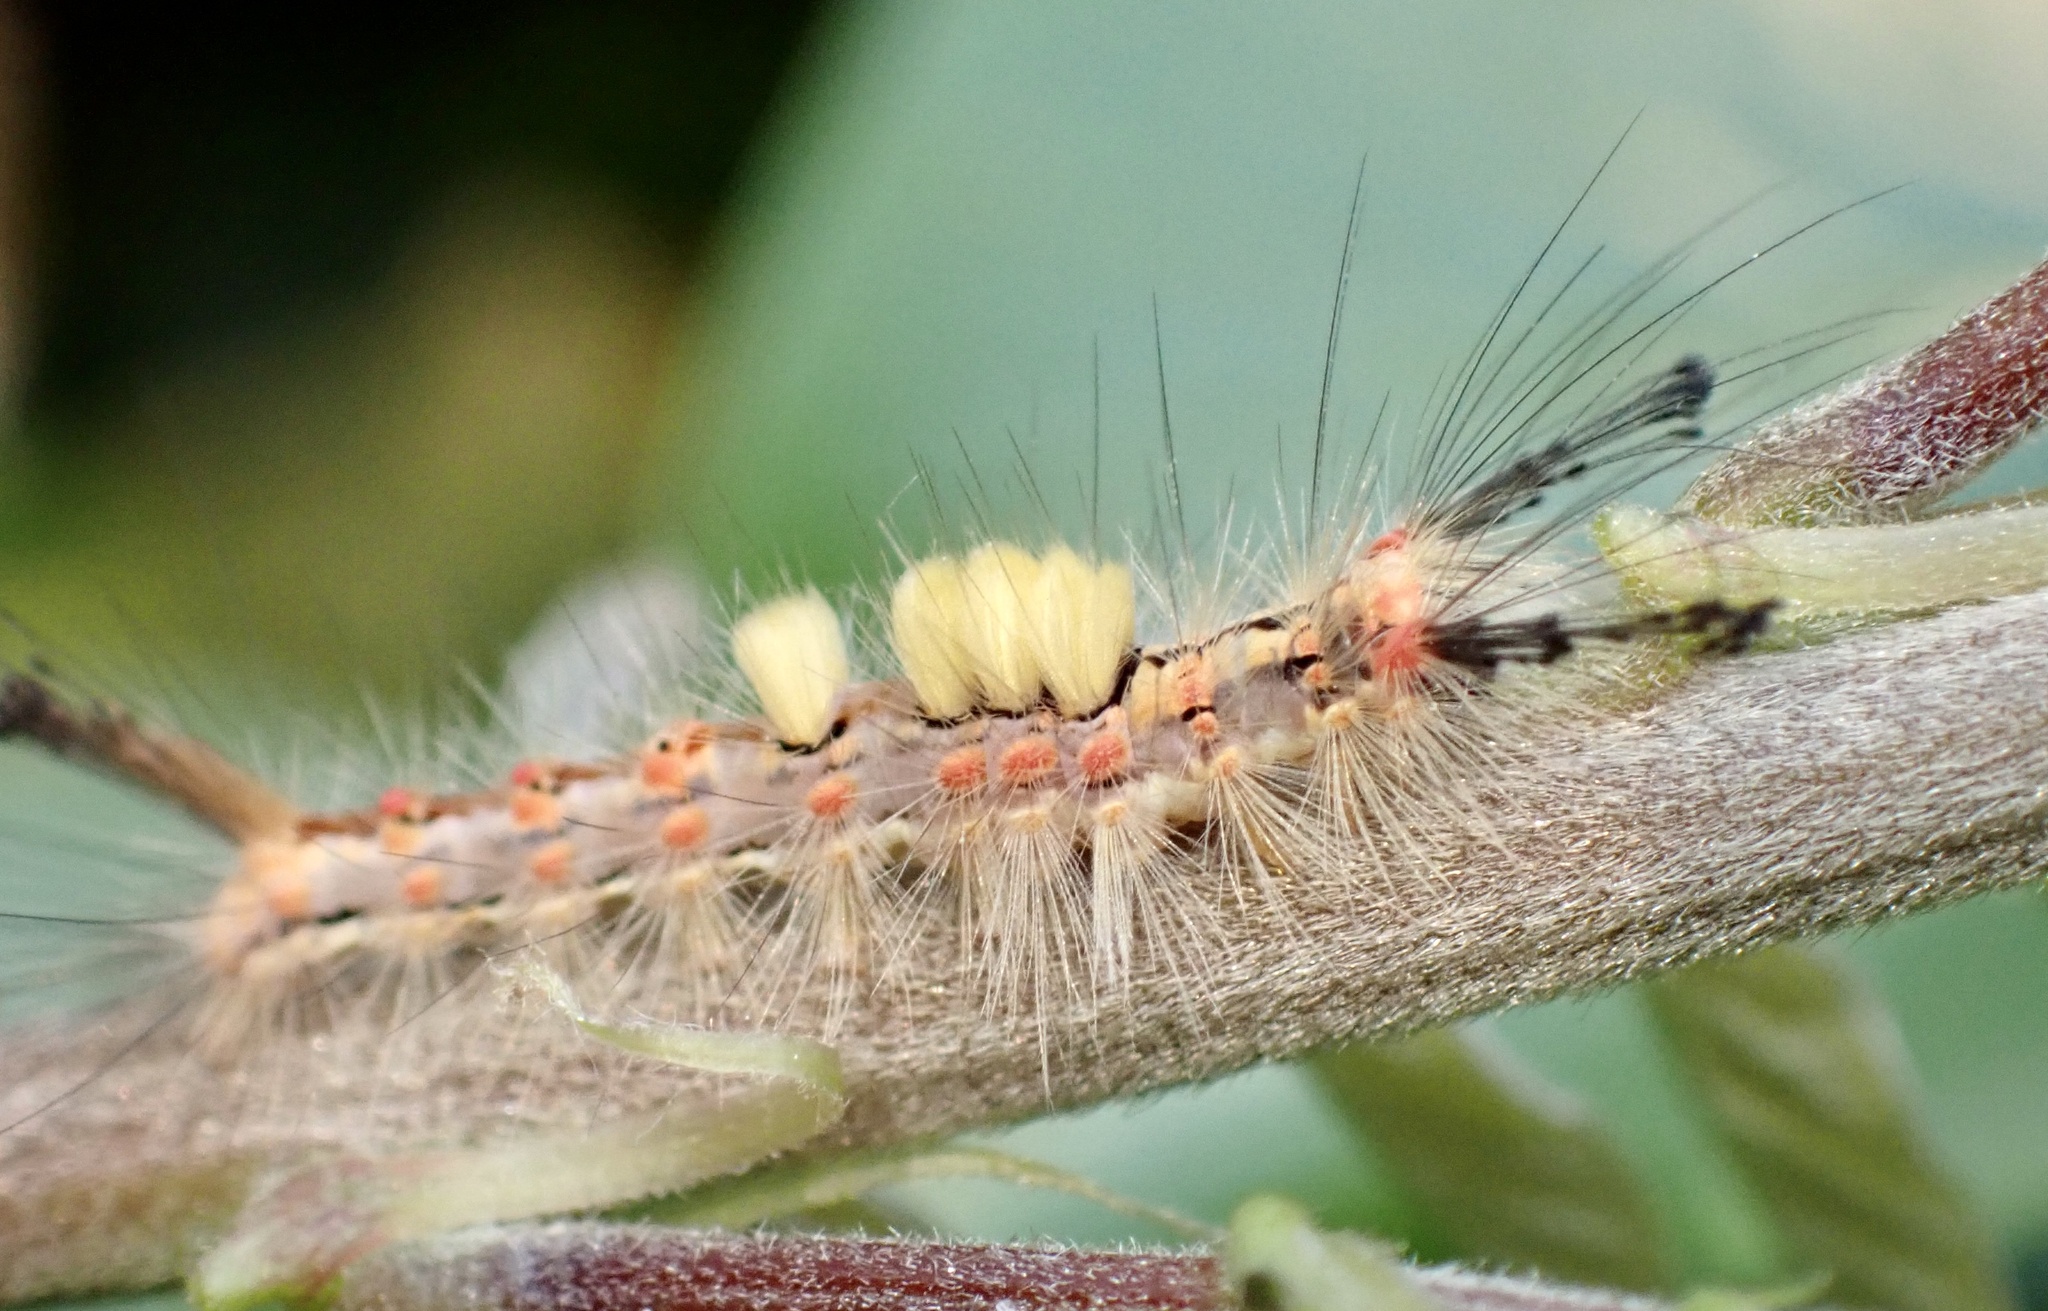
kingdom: Animalia
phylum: Arthropoda
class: Insecta
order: Lepidoptera
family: Erebidae
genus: Orgyia
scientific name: Orgyia antiqua
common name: Vapourer
